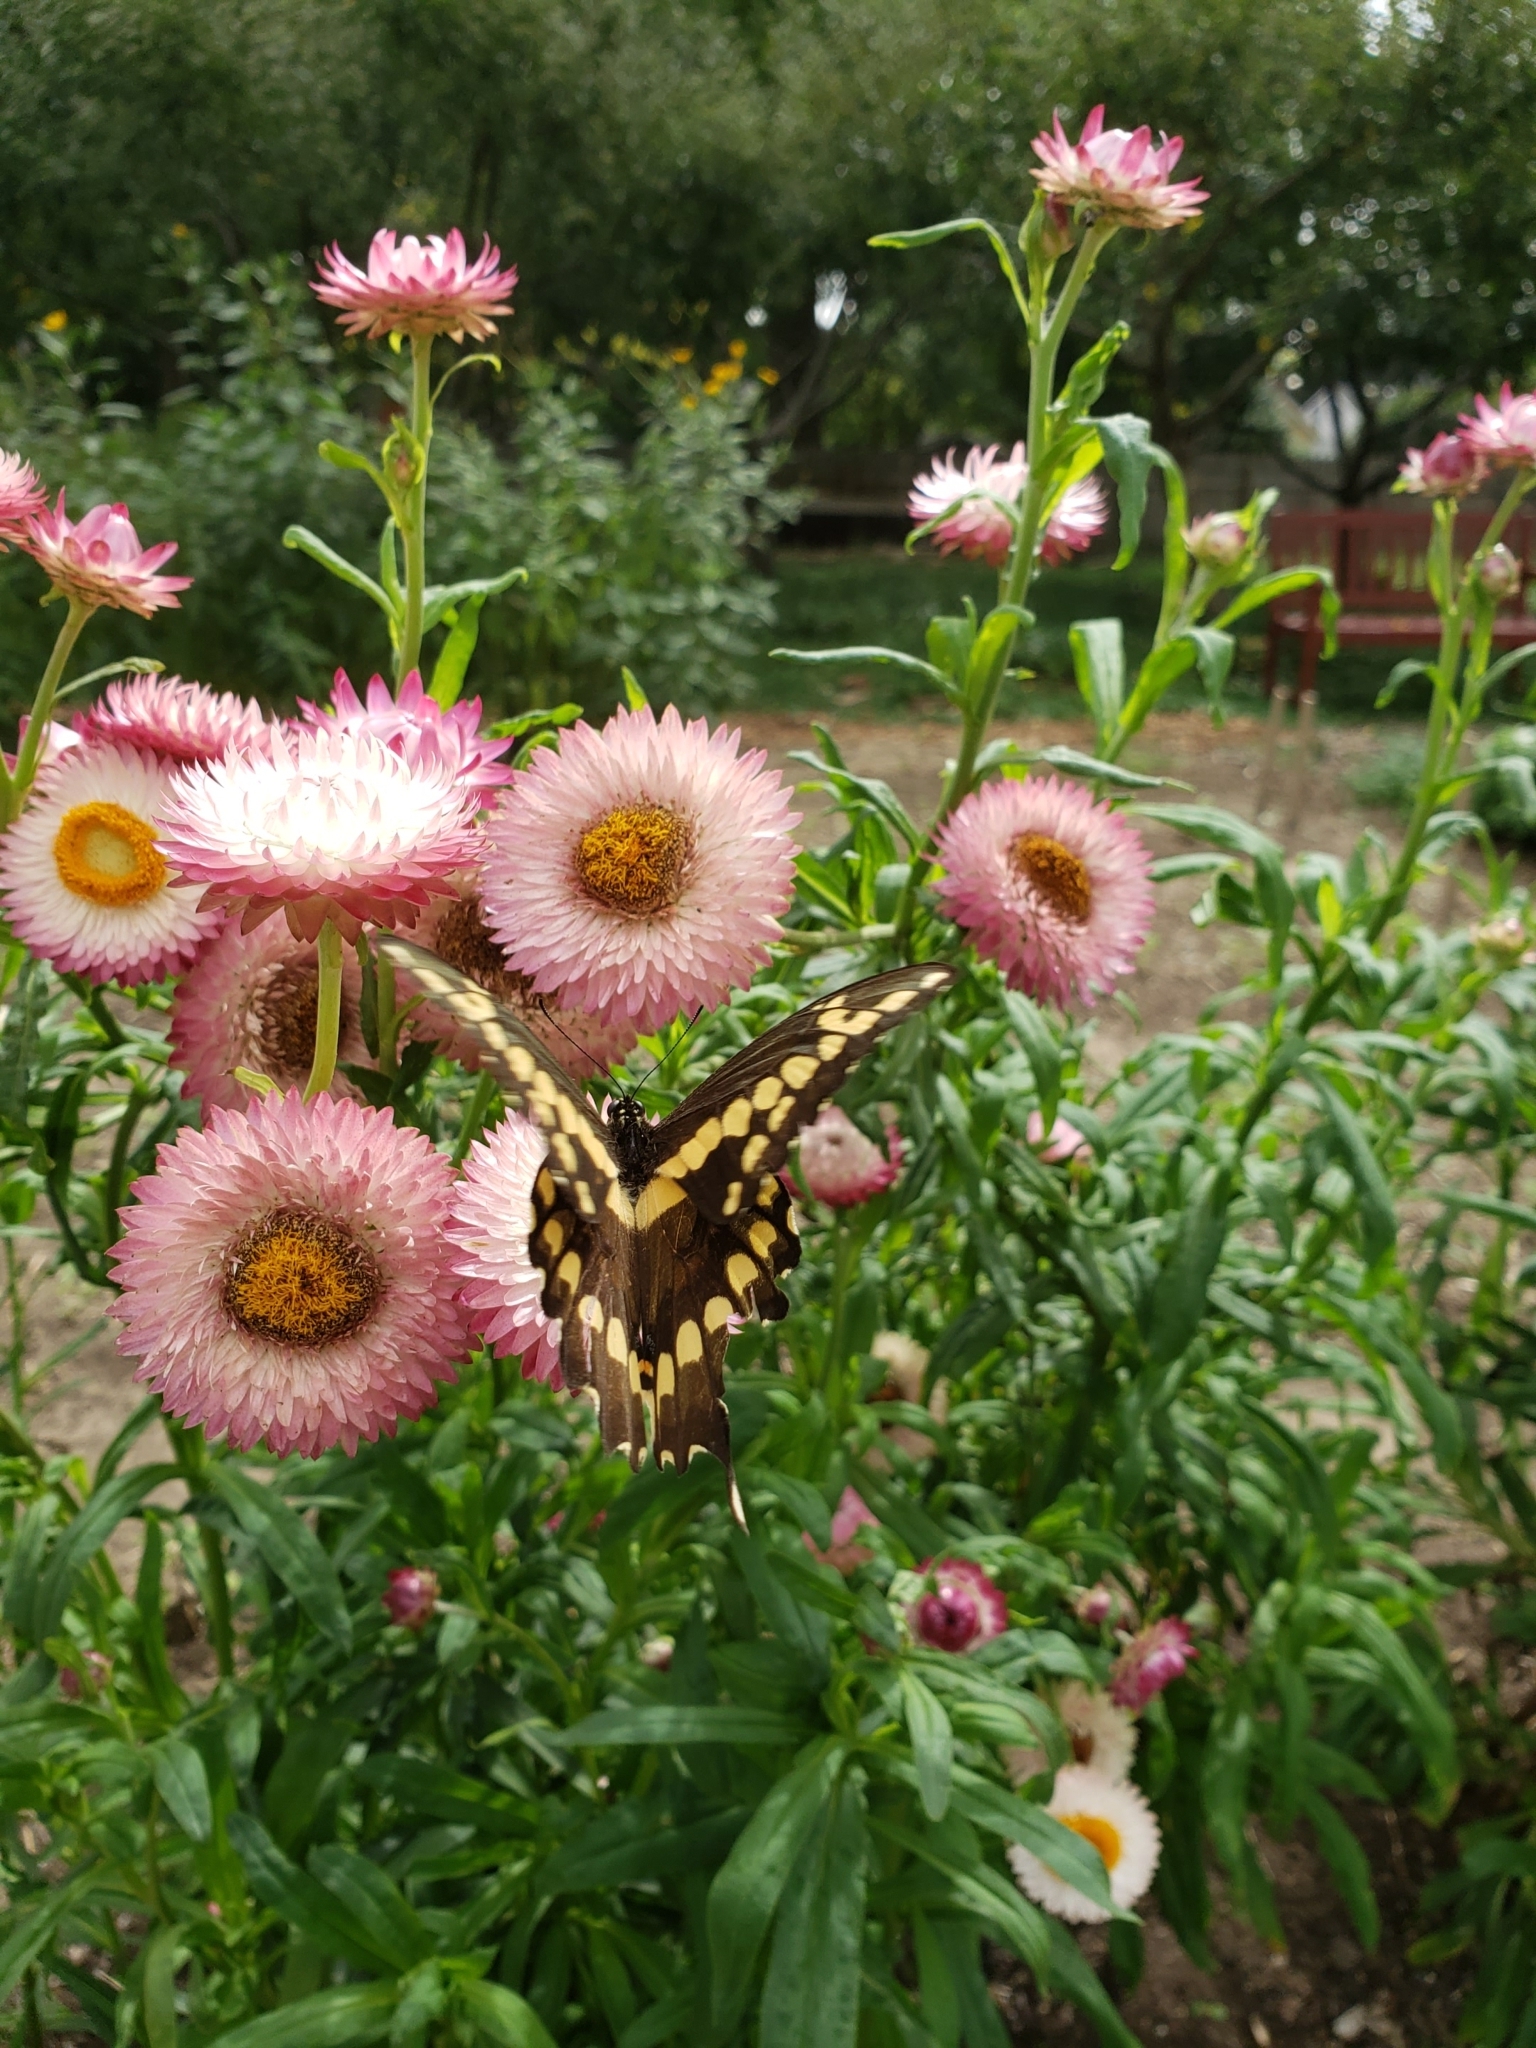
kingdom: Animalia
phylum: Arthropoda
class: Insecta
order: Lepidoptera
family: Papilionidae
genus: Papilio
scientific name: Papilio cresphontes
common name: Giant swallowtail
